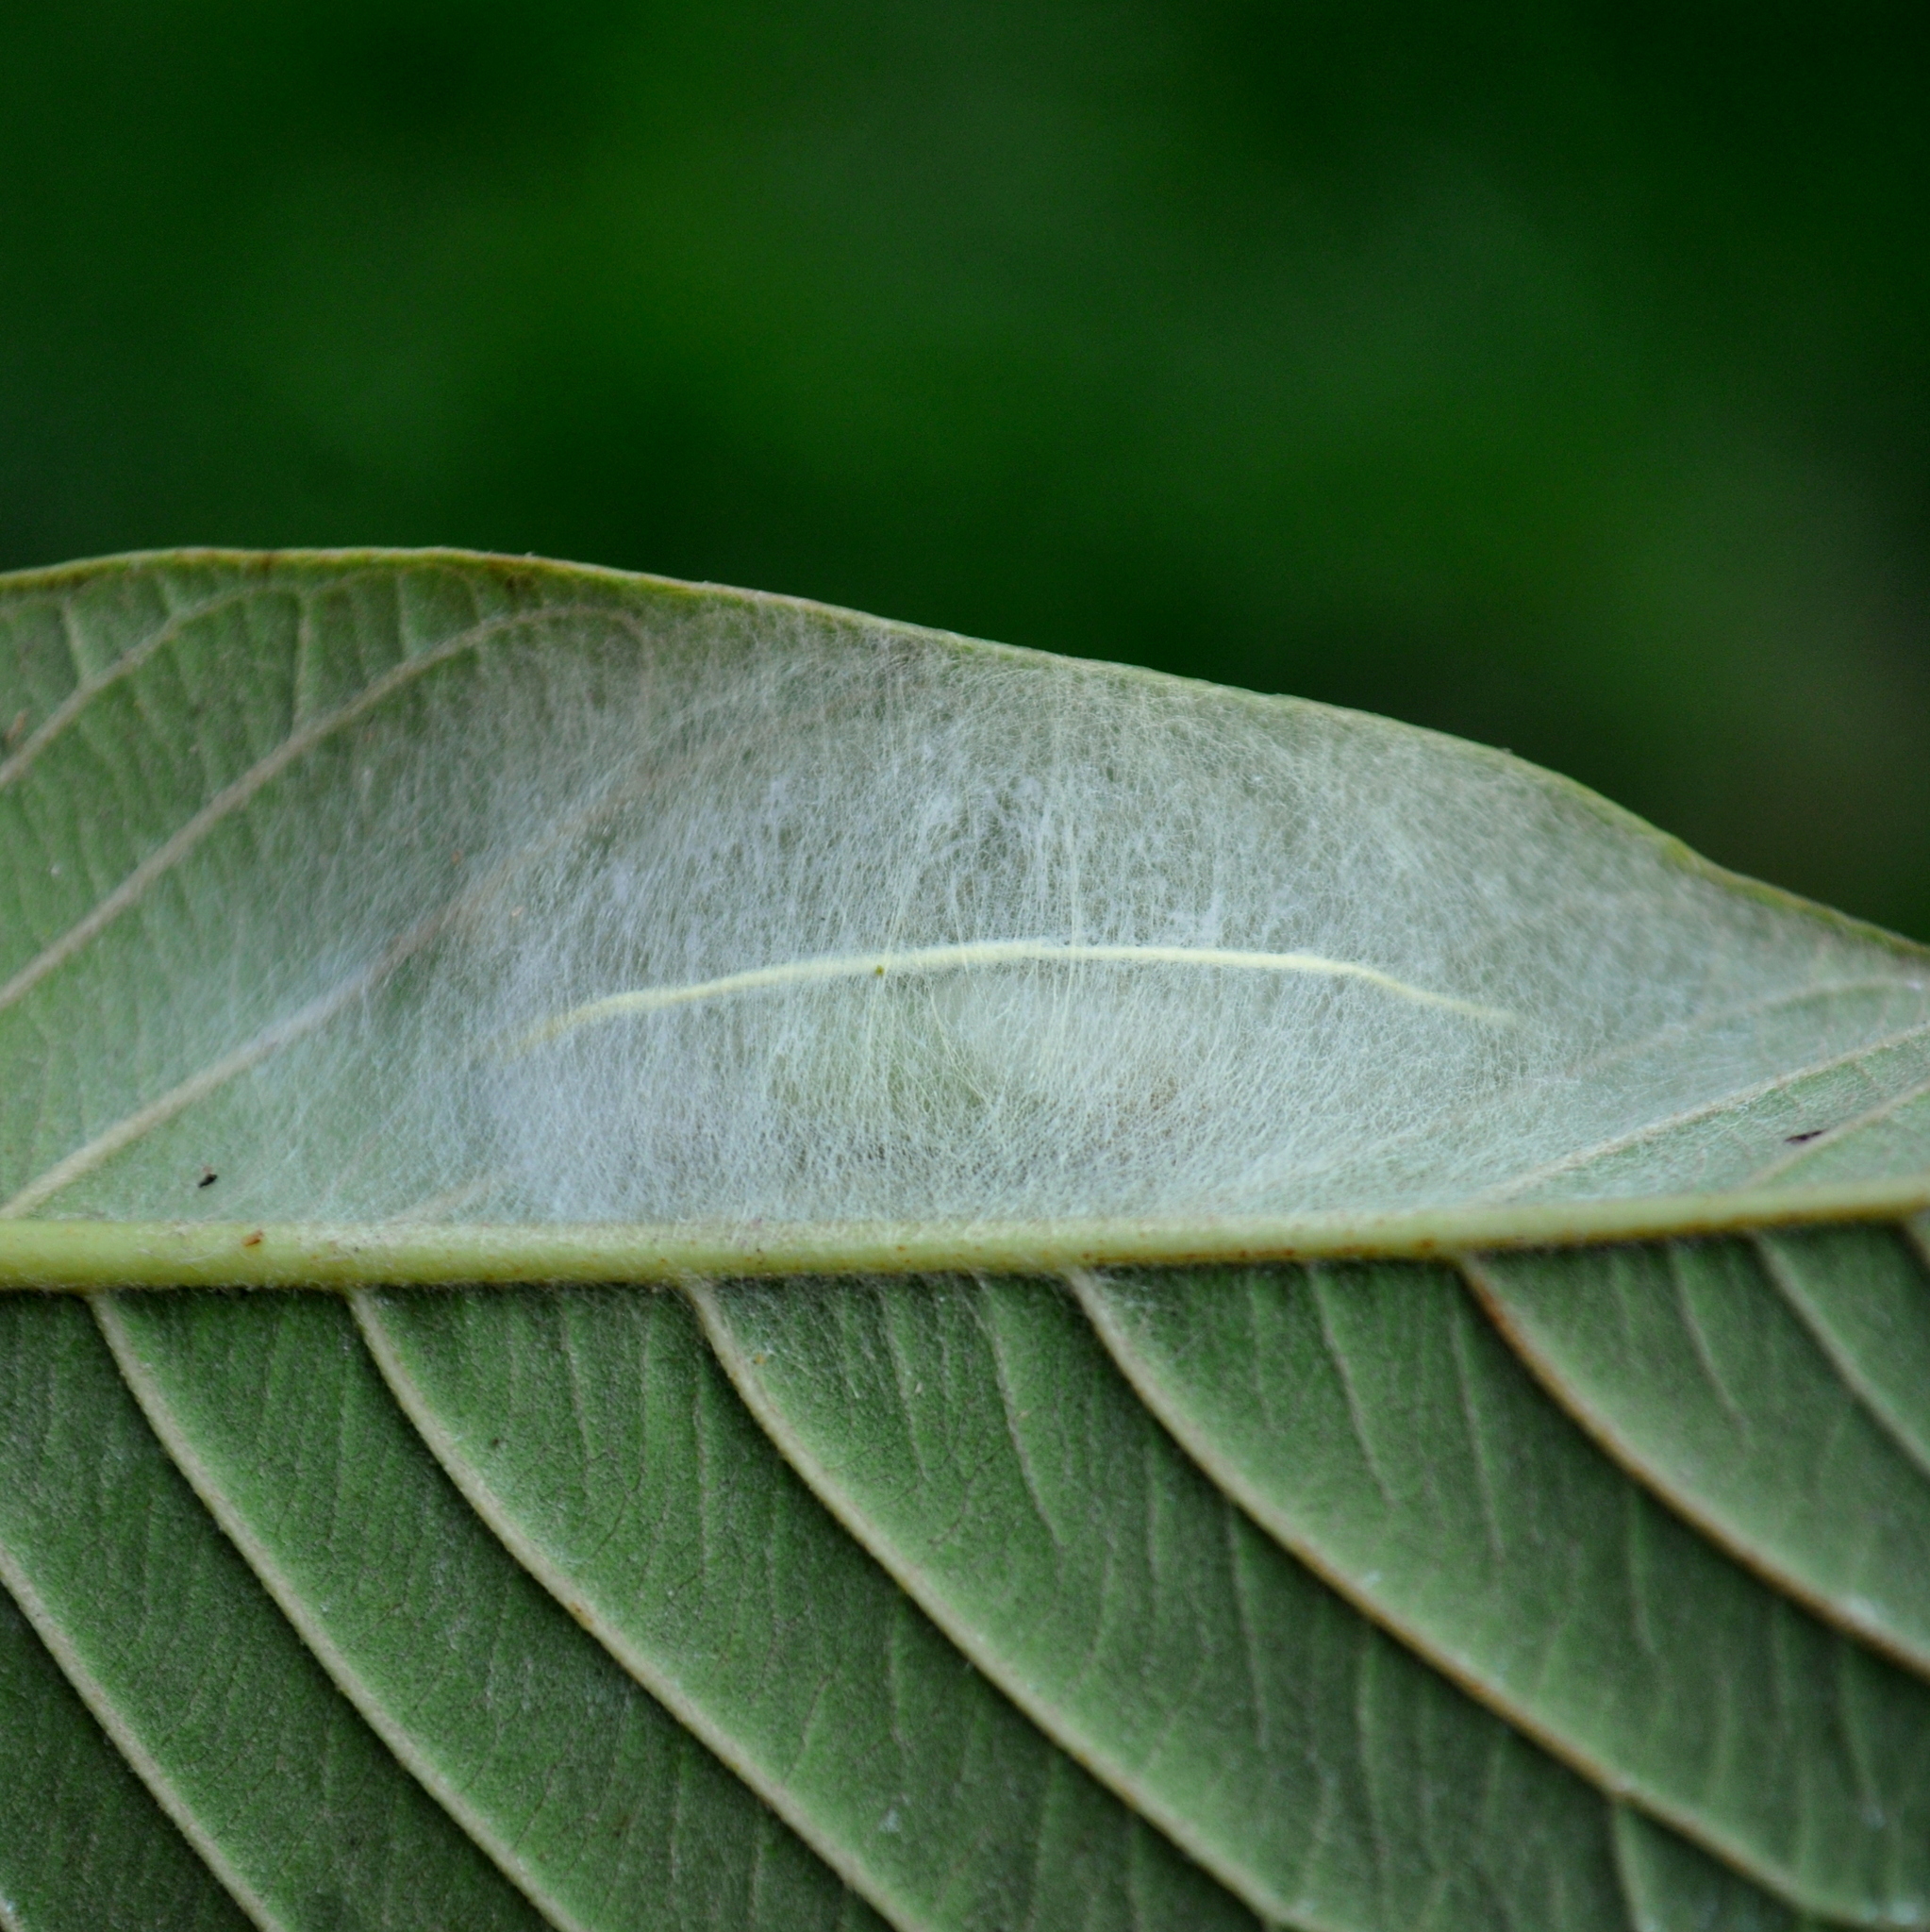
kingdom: Animalia
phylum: Arthropoda
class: Insecta
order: Lepidoptera
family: Dalceridae
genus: Acraga
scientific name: Acraga flava
